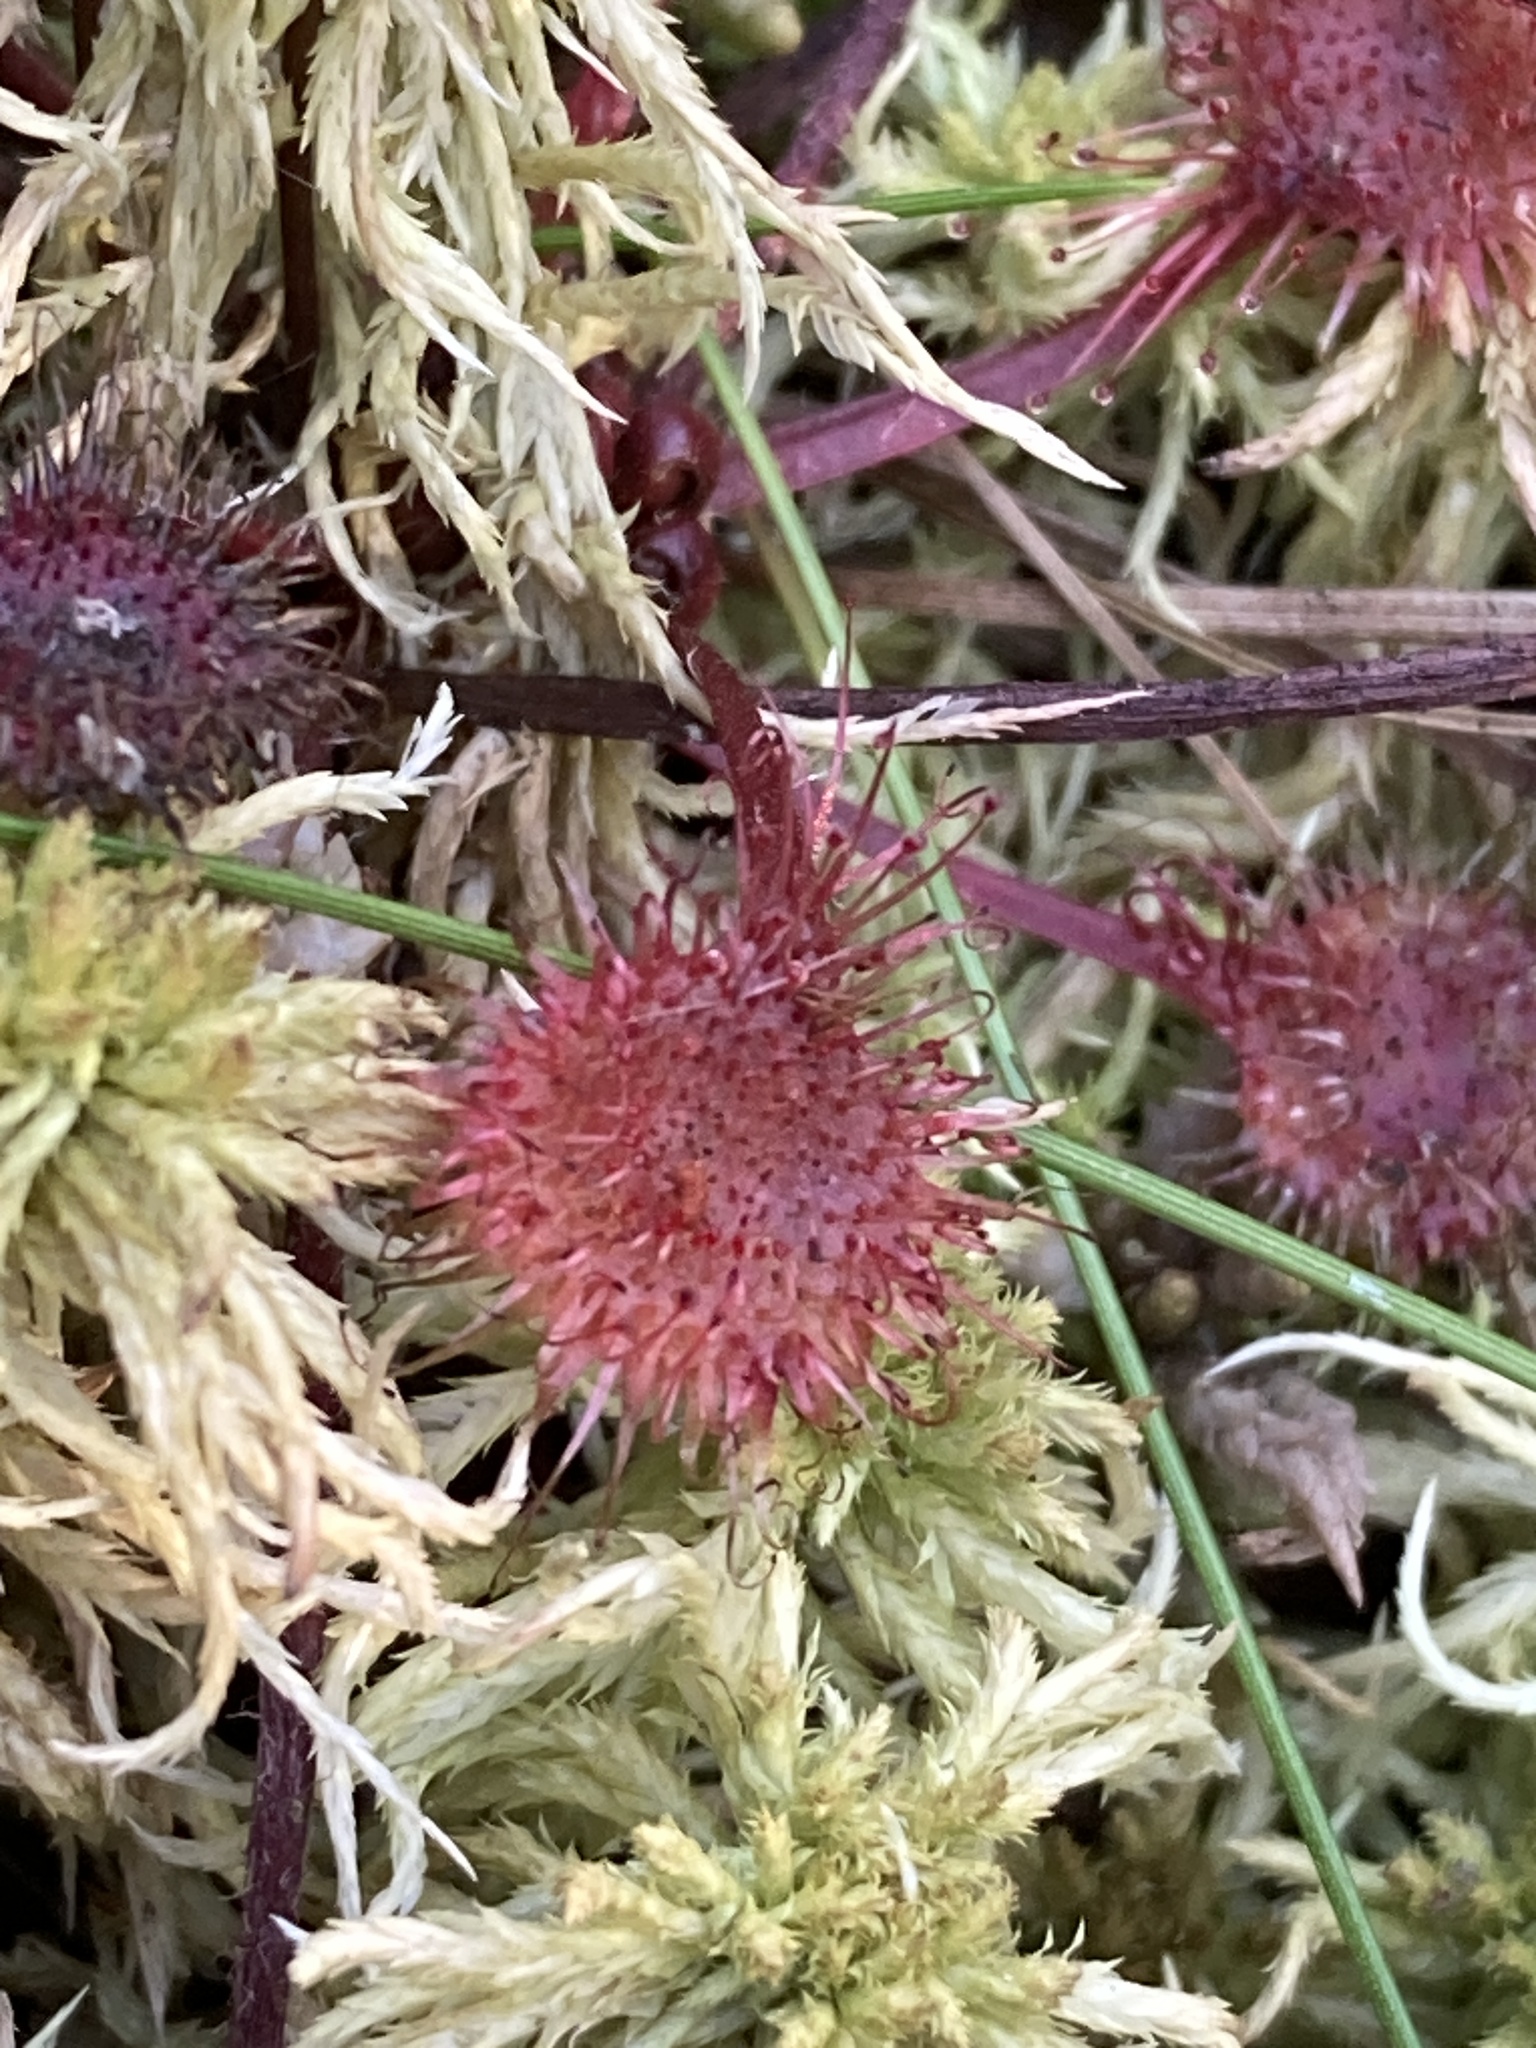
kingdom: Plantae
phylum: Tracheophyta
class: Magnoliopsida
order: Caryophyllales
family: Droseraceae
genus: Drosera
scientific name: Drosera rotundifolia
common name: Round-leaved sundew
